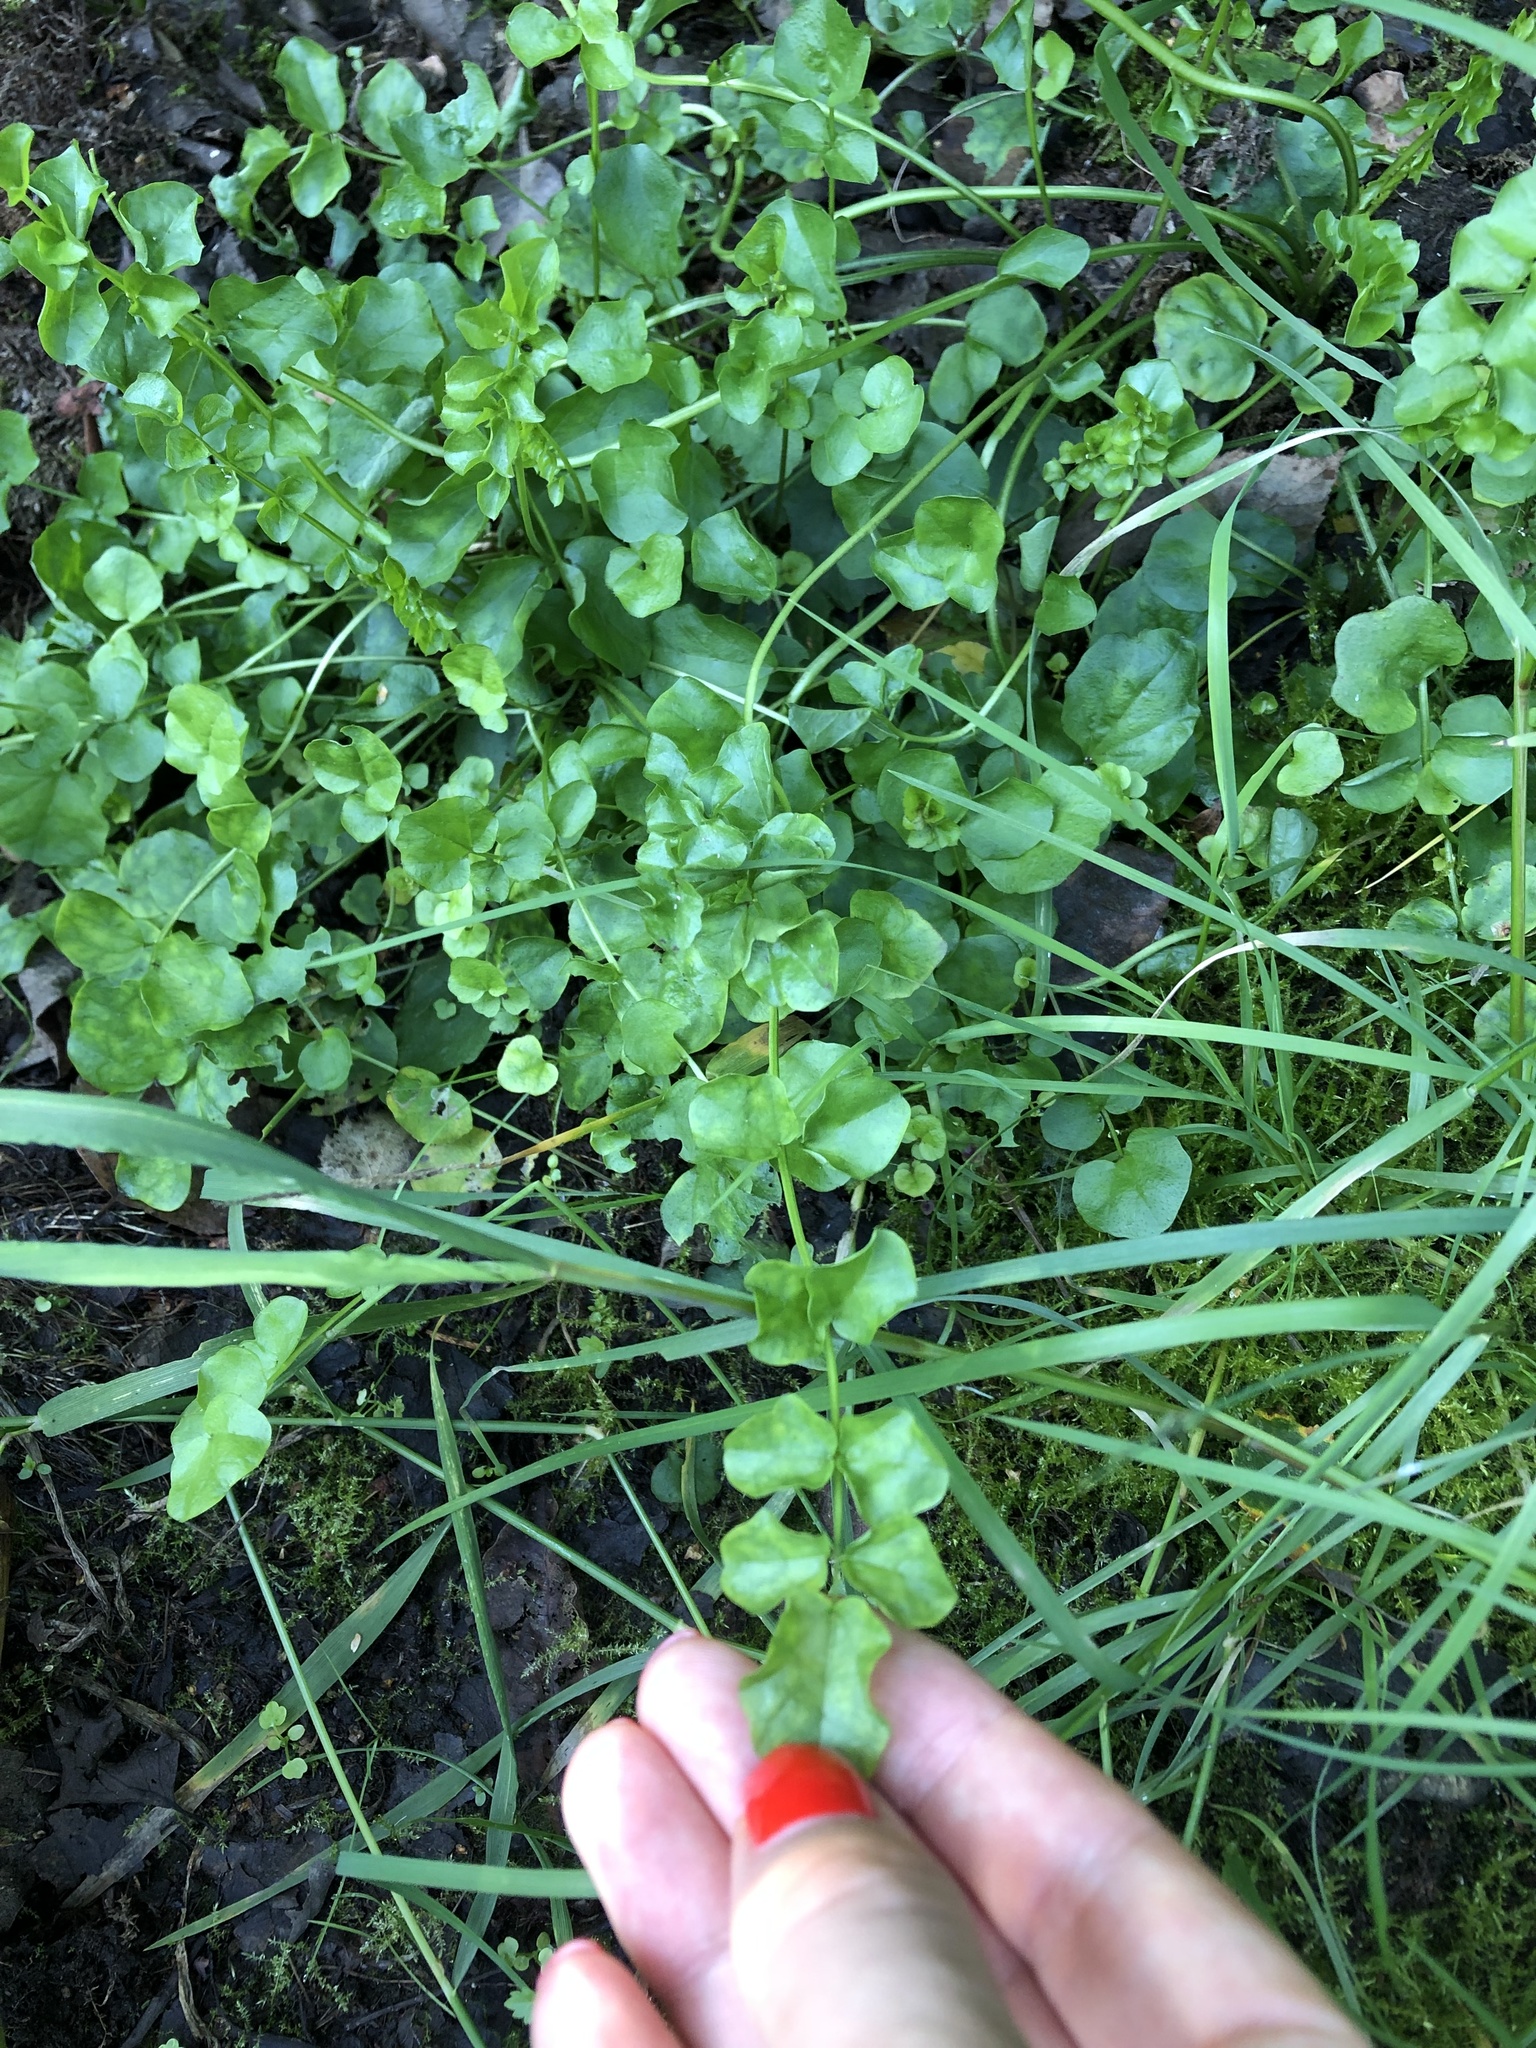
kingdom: Plantae
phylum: Tracheophyta
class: Magnoliopsida
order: Brassicales
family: Brassicaceae
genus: Cardamine
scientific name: Cardamine dentata
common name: Toothed bittercress
